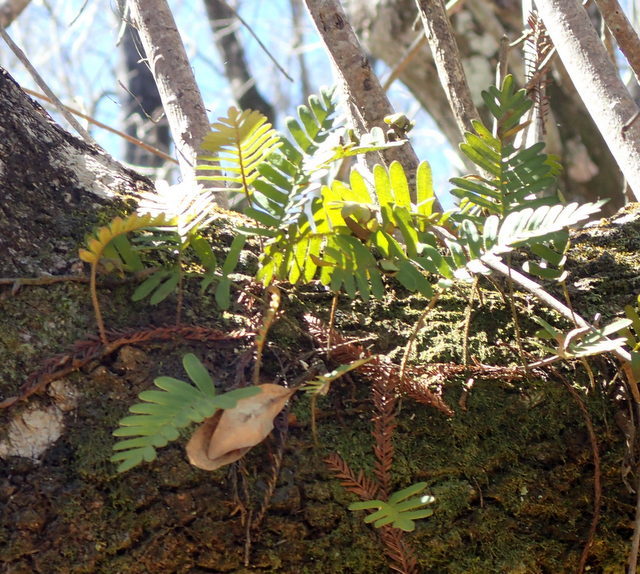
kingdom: Plantae
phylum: Tracheophyta
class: Polypodiopsida
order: Polypodiales
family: Polypodiaceae
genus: Pleopeltis
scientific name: Pleopeltis michauxiana
